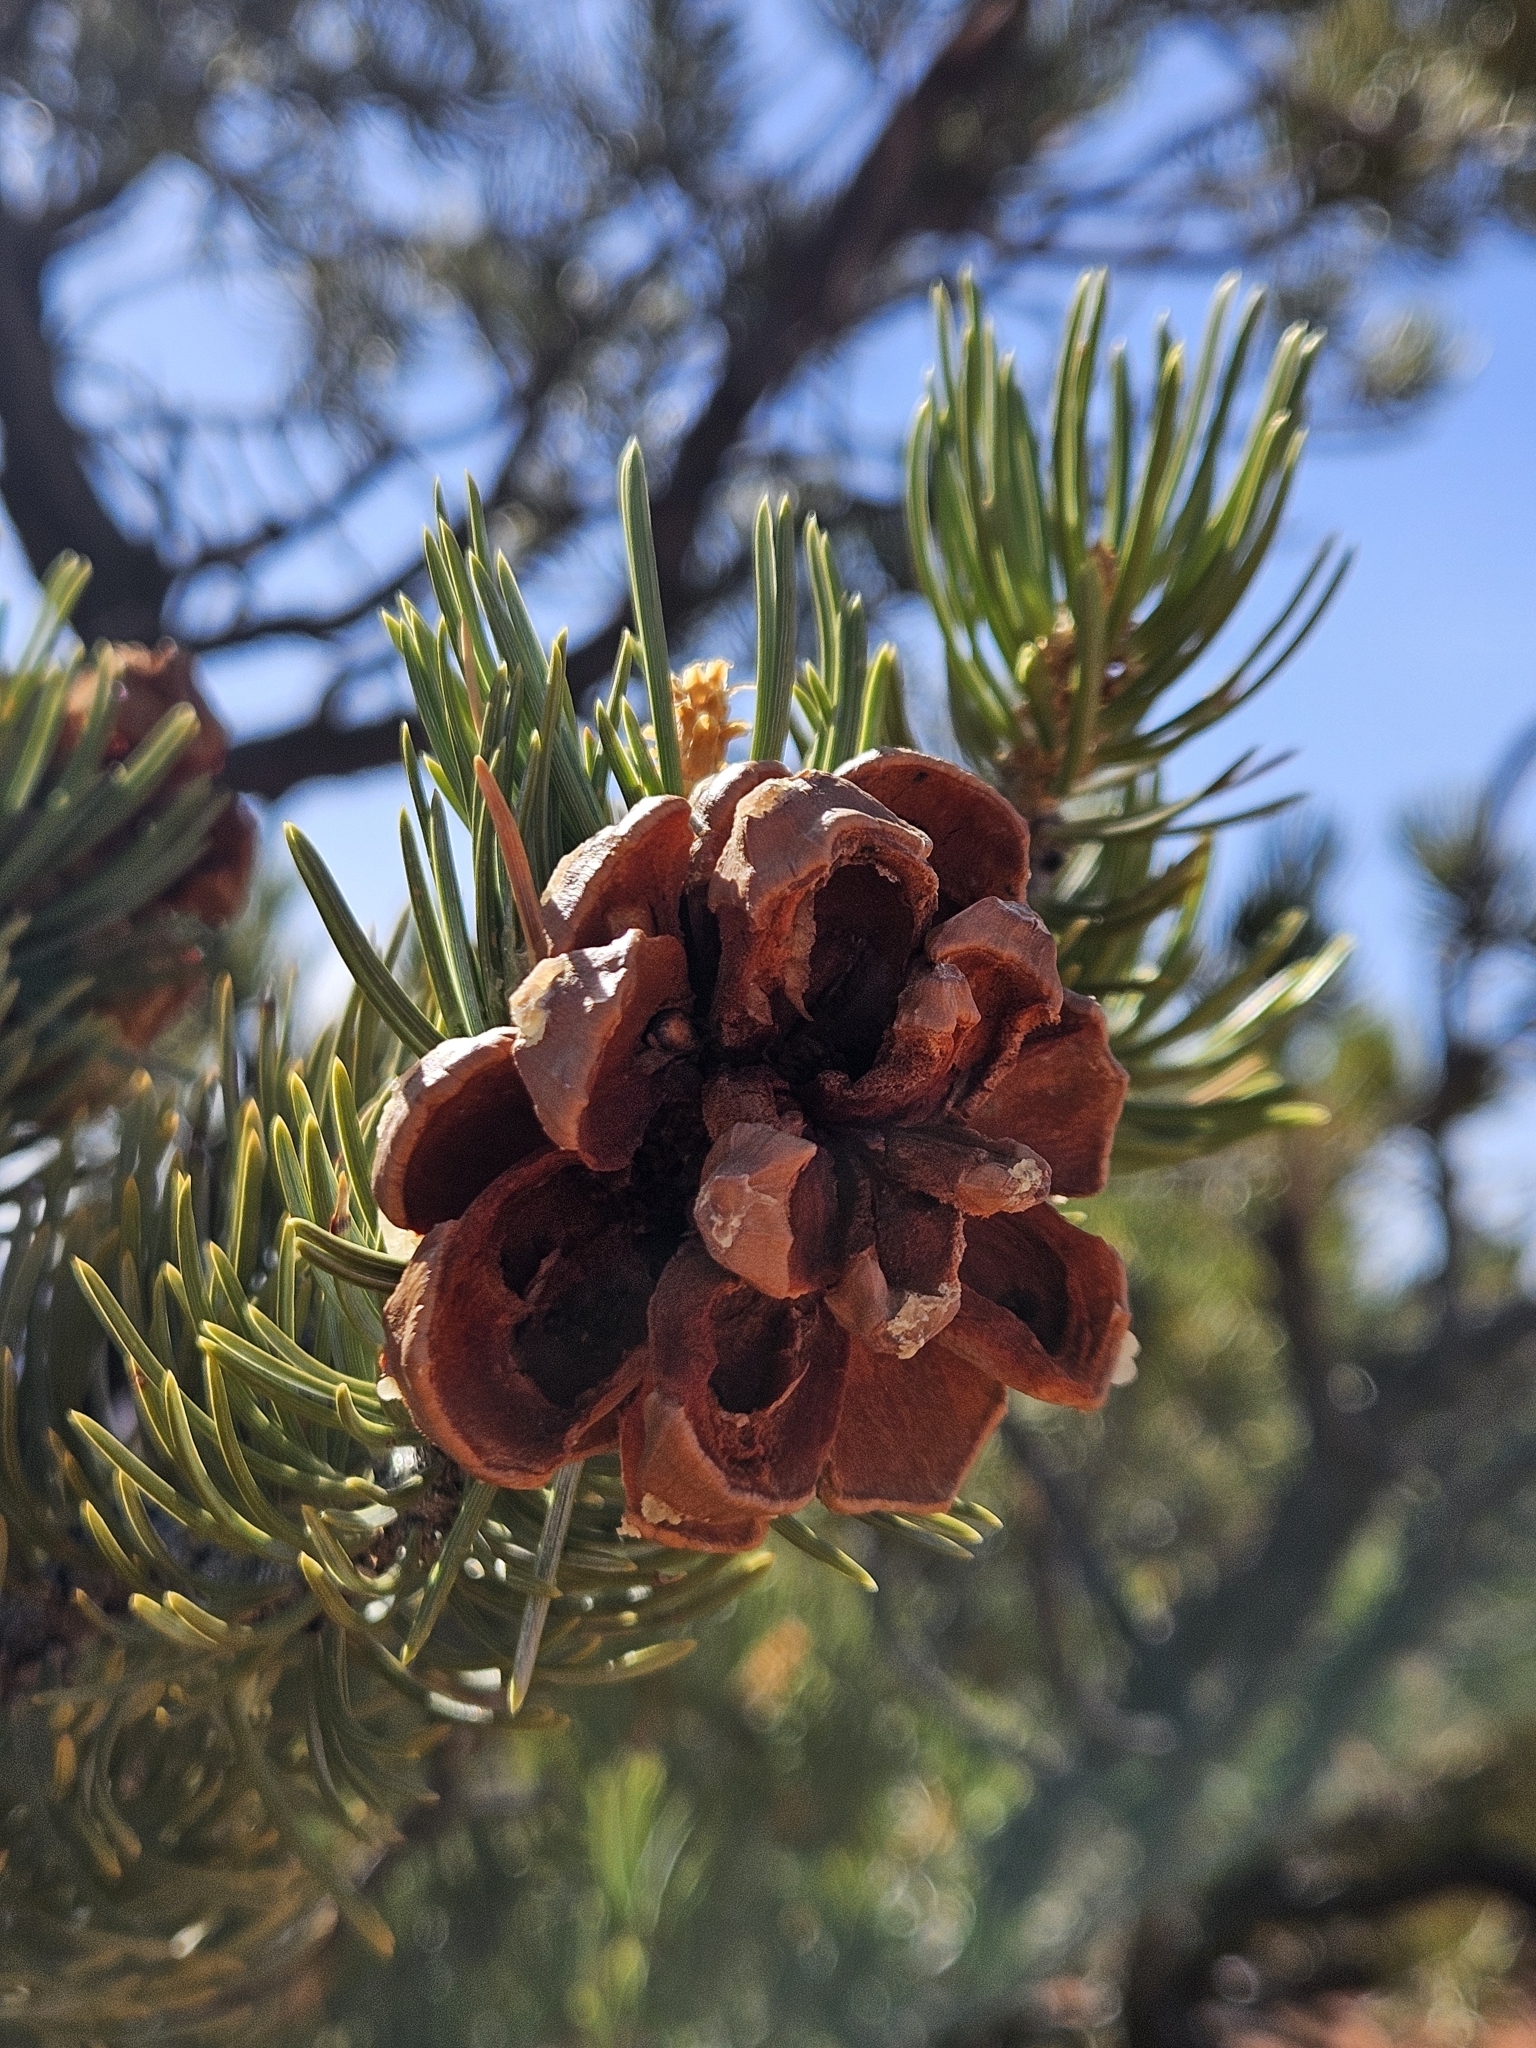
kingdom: Plantae
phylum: Tracheophyta
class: Pinopsida
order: Pinales
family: Pinaceae
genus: Pinus
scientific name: Pinus edulis
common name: Colorado pinyon
